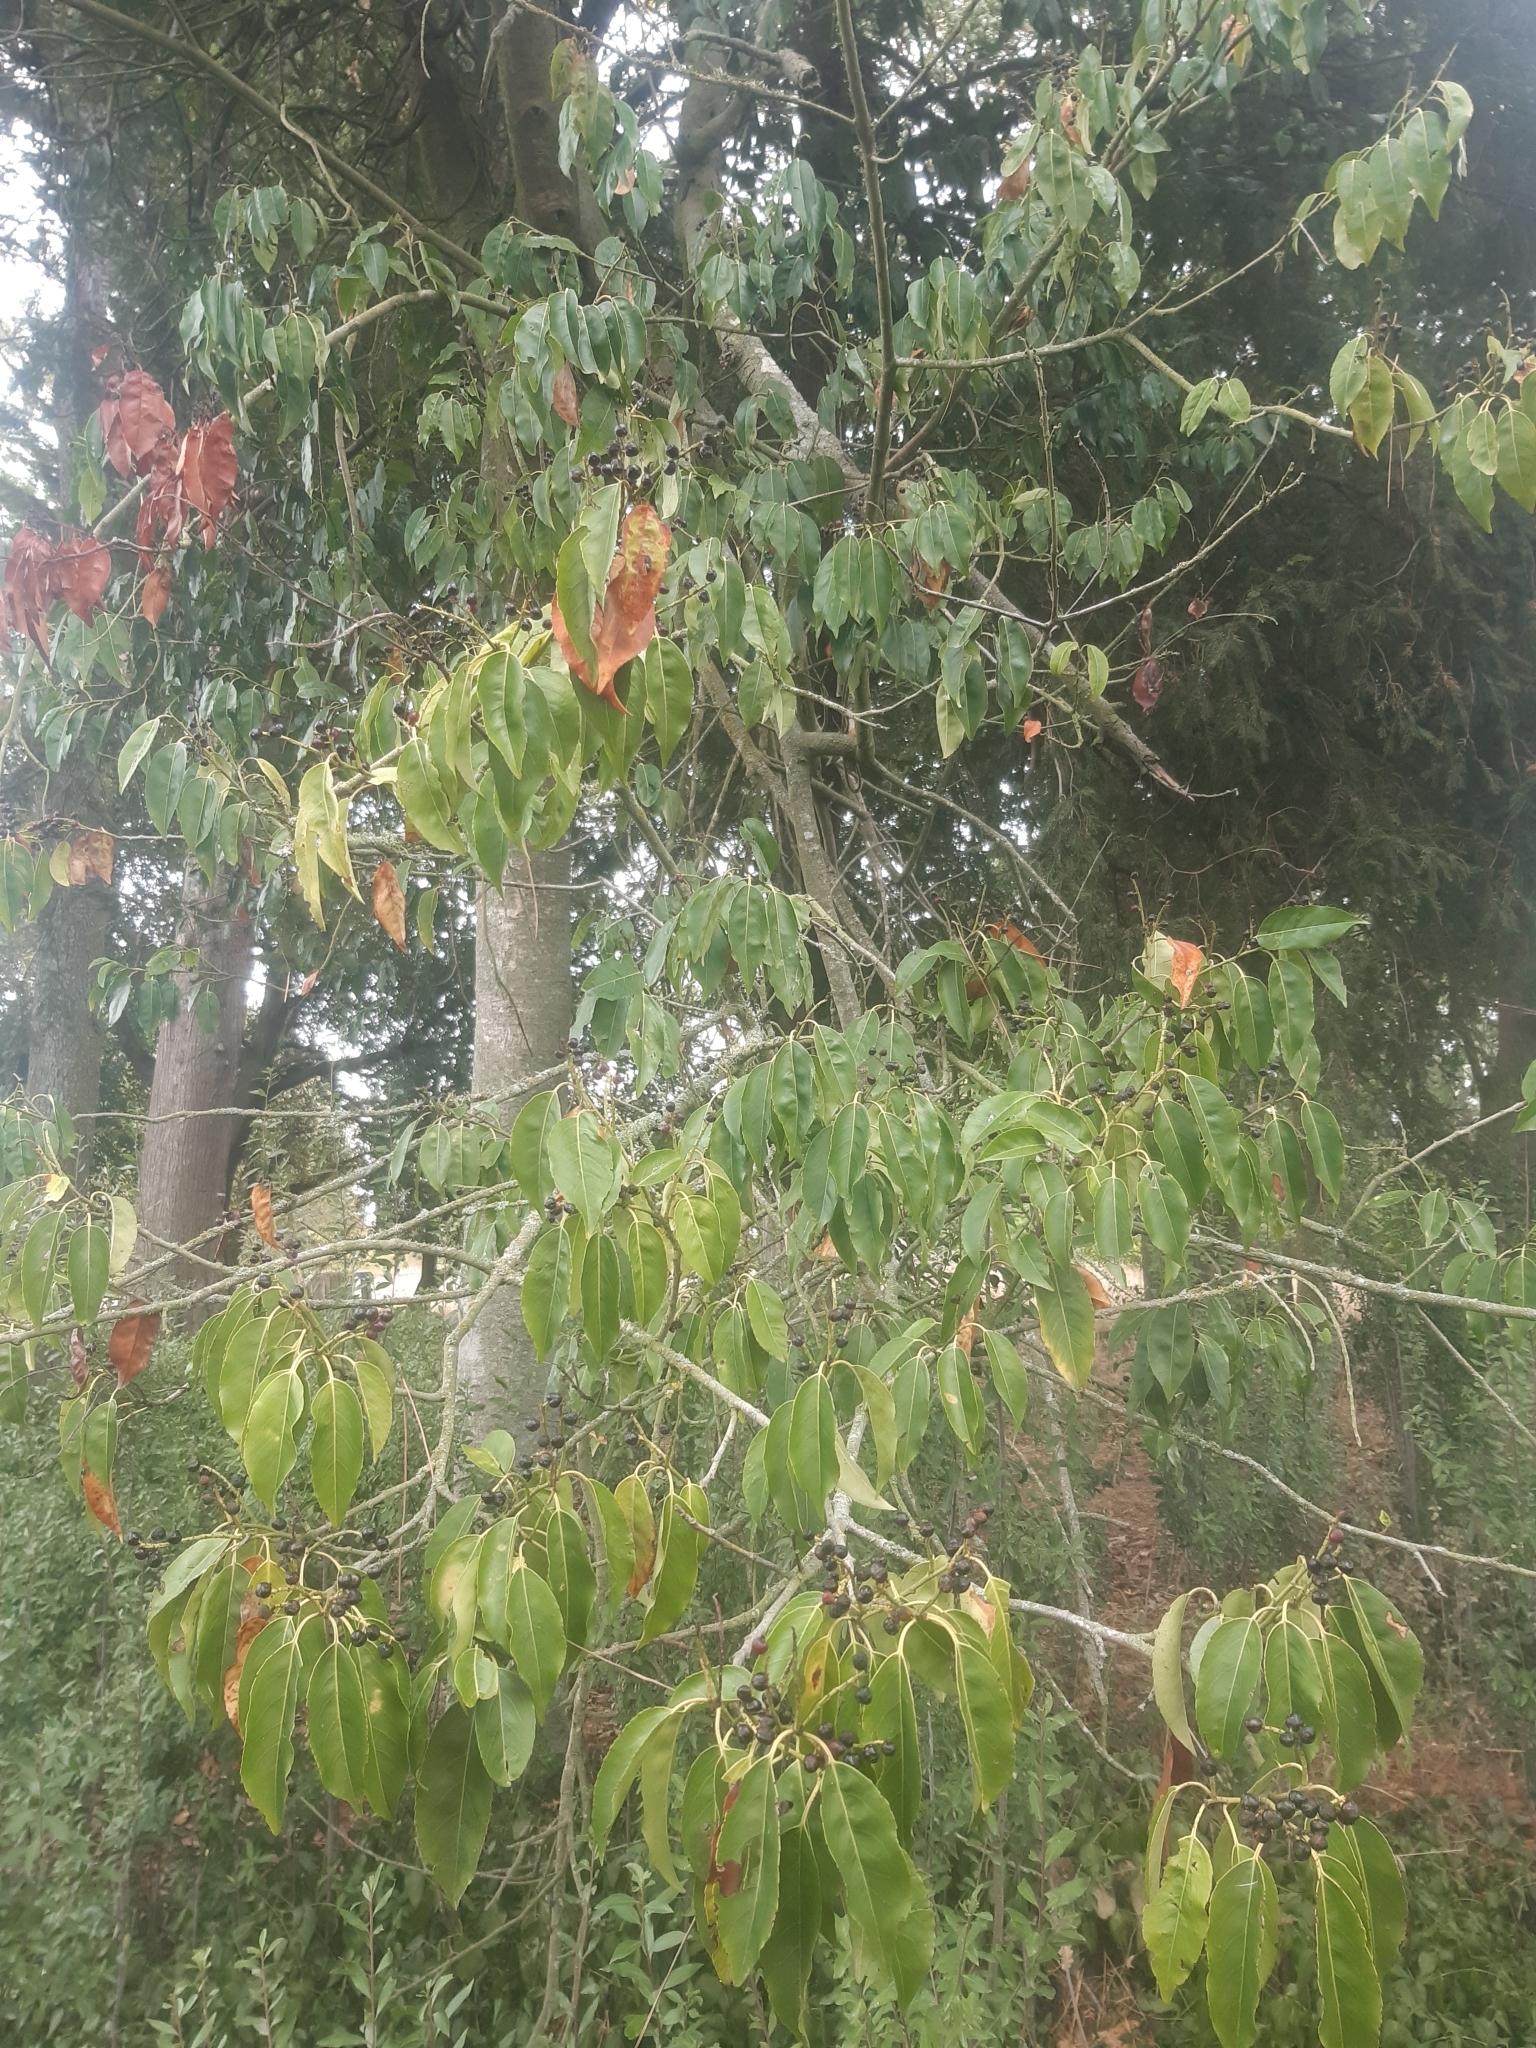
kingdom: Plantae
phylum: Tracheophyta
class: Magnoliopsida
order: Rosales
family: Rosaceae
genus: Prunus
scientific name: Prunus lusitanica
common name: Portugal laurel
